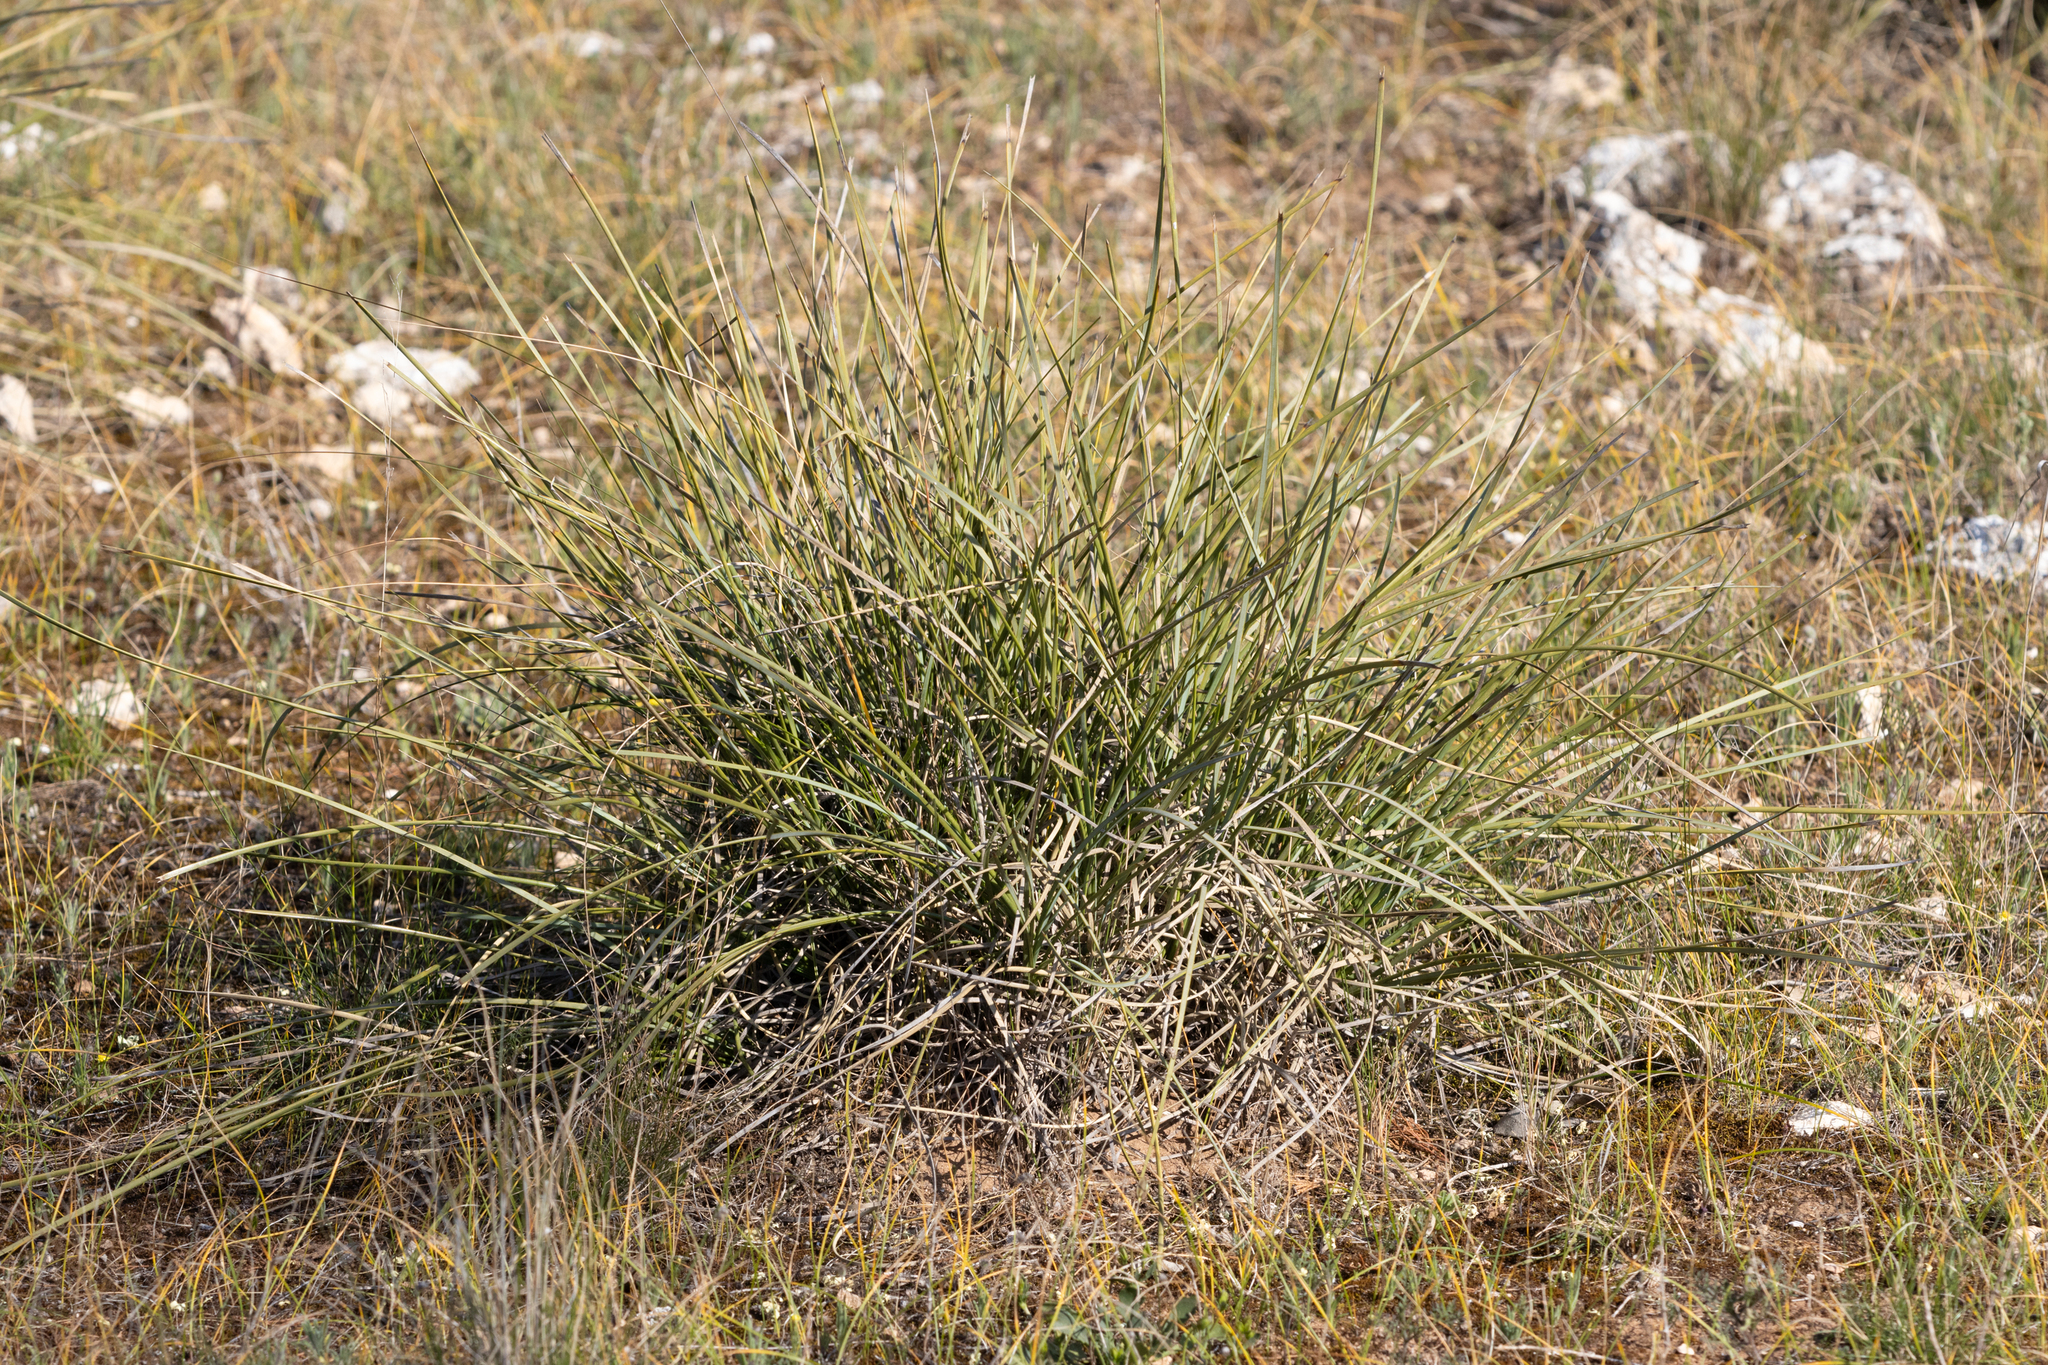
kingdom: Plantae
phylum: Tracheophyta
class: Liliopsida
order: Asparagales
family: Asparagaceae
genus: Lomandra
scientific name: Lomandra effusa
